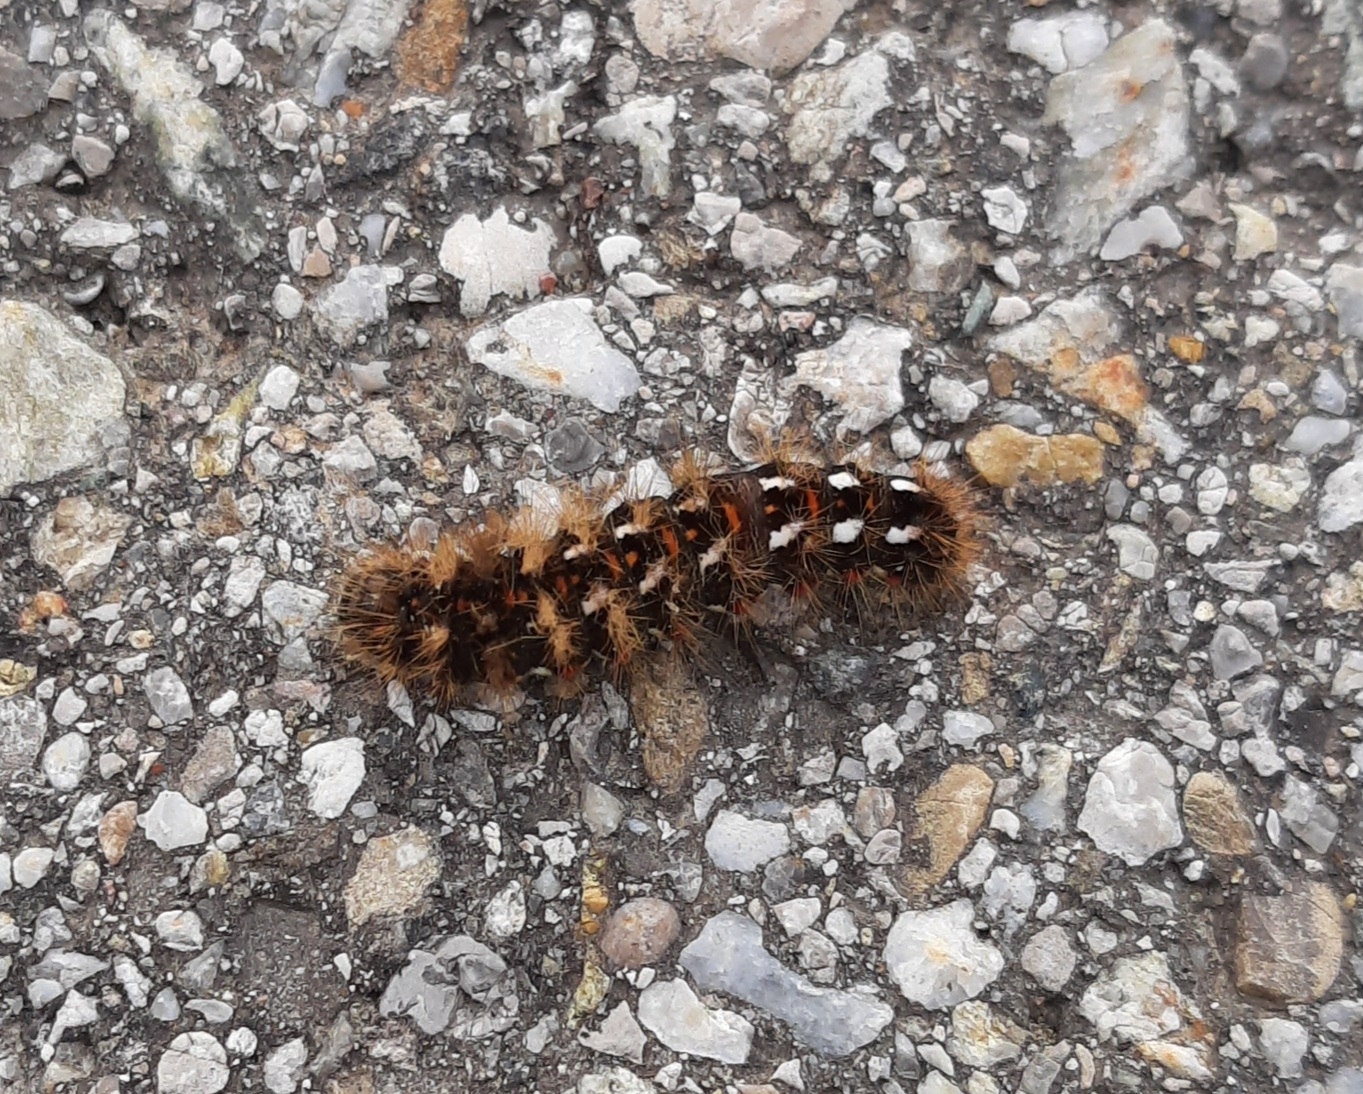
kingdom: Animalia
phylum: Arthropoda
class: Insecta
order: Lepidoptera
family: Noctuidae
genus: Acronicta
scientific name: Acronicta rumicis
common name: Knot grass
